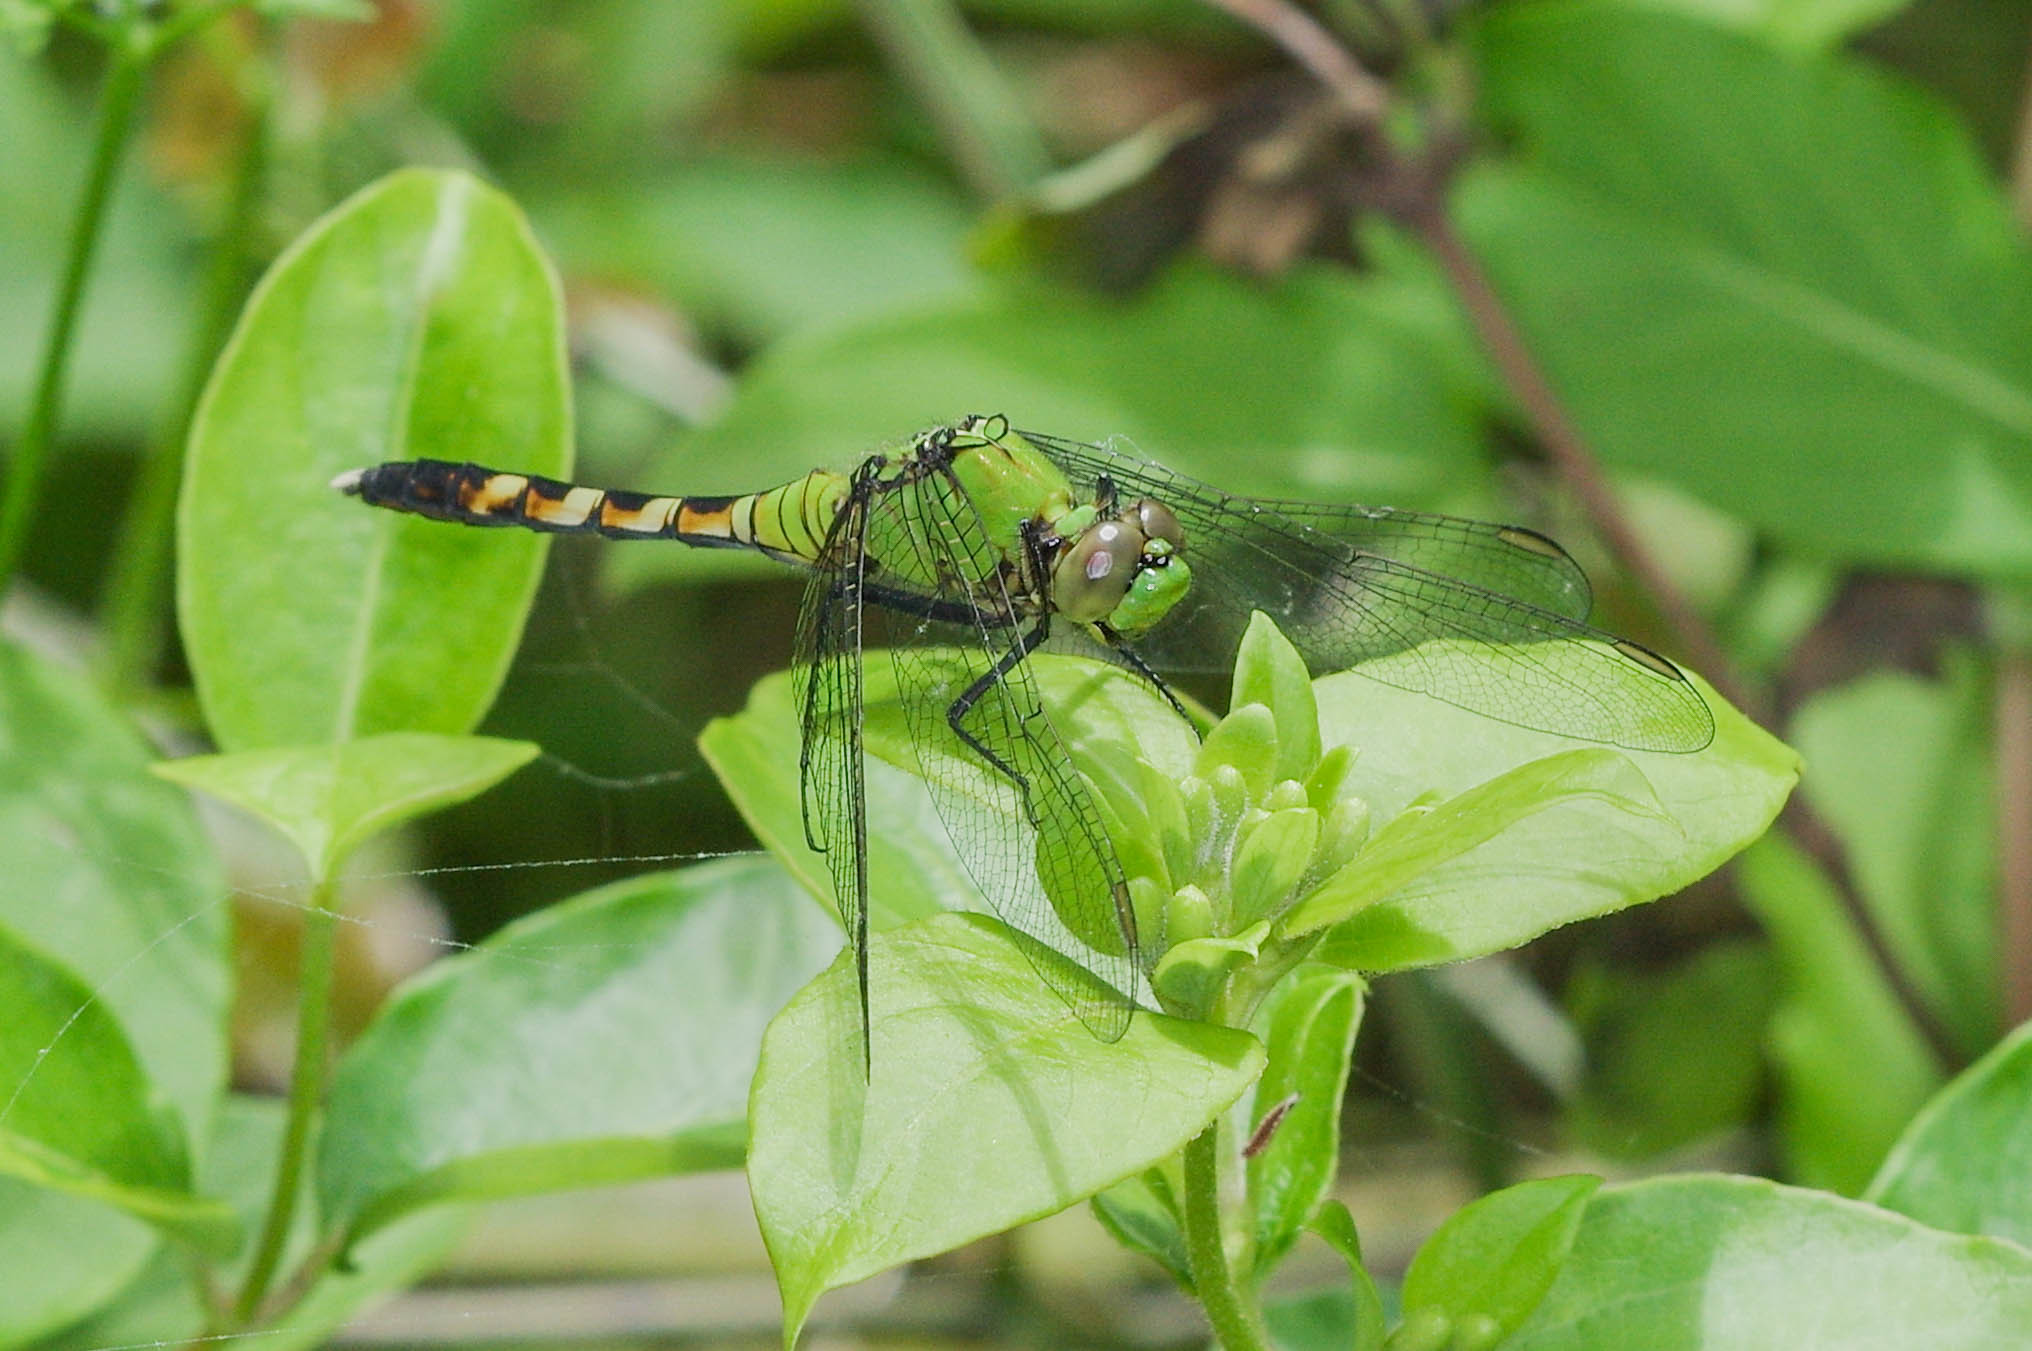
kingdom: Animalia
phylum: Arthropoda
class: Insecta
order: Odonata
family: Libellulidae
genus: Erythemis
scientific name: Erythemis simplicicollis
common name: Eastern pondhawk
